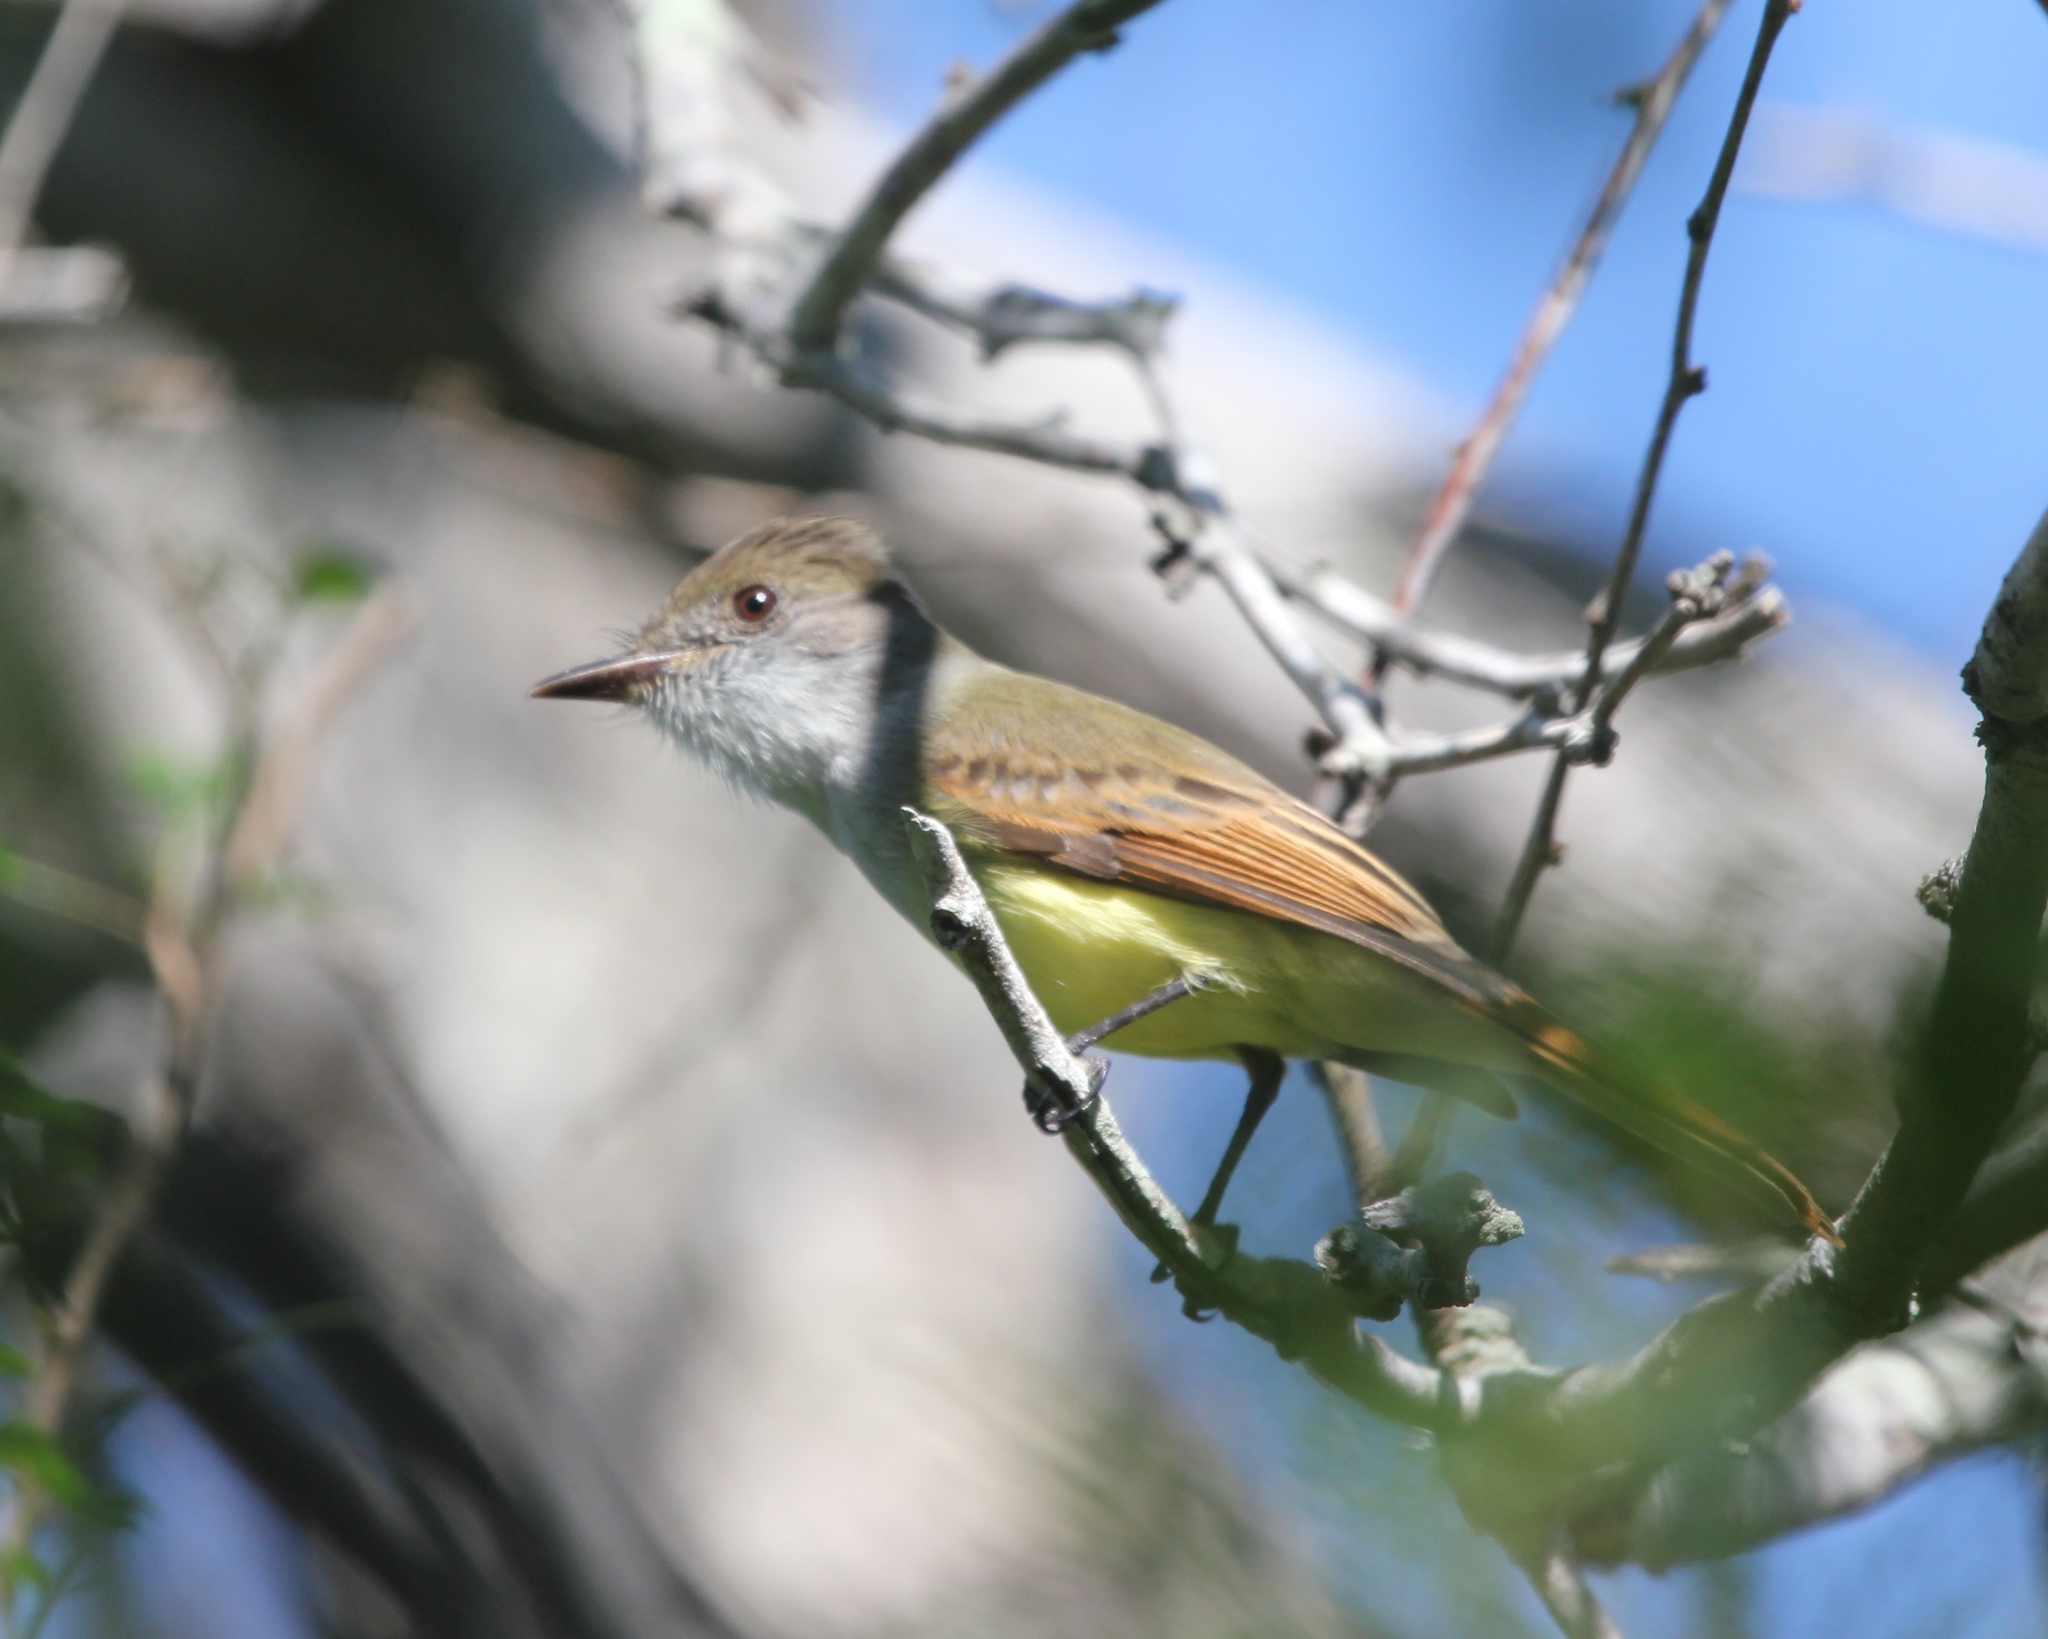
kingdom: Animalia
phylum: Chordata
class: Aves
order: Passeriformes
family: Tyrannidae
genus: Myiarchus
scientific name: Myiarchus tuberculifer
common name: Dusky-capped flycatcher
